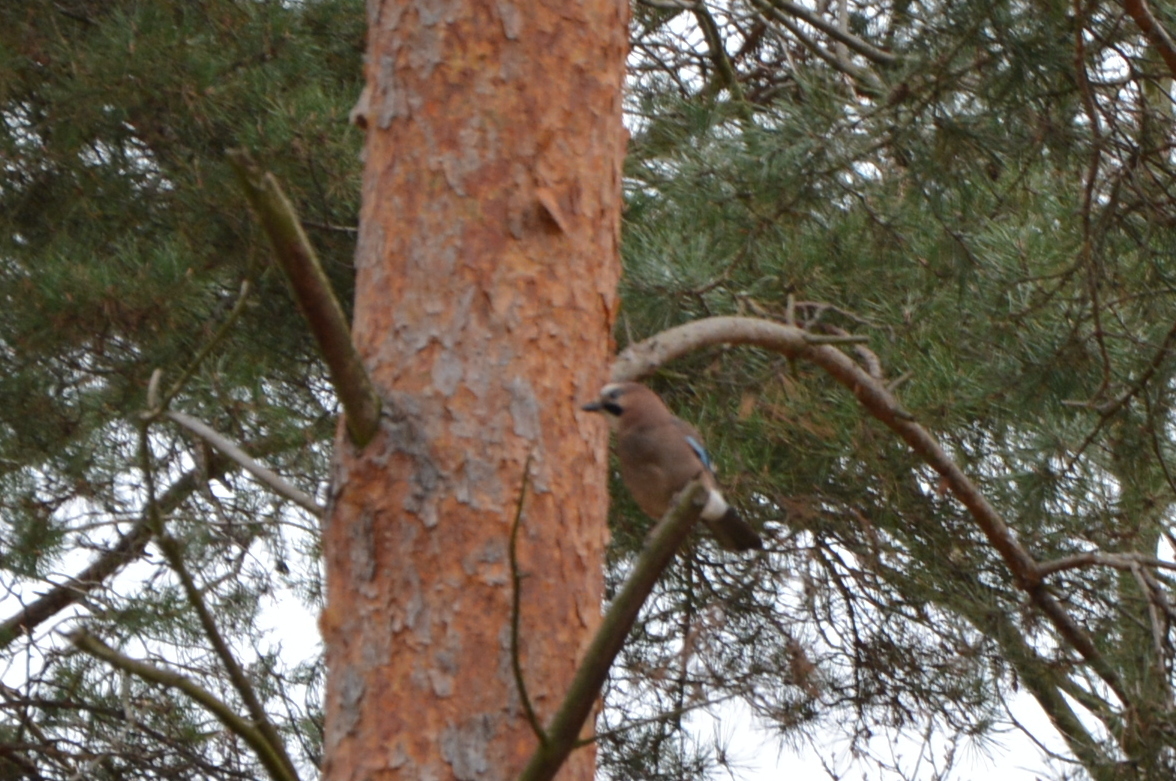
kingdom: Animalia
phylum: Chordata
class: Aves
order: Passeriformes
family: Corvidae
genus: Garrulus
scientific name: Garrulus glandarius
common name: Eurasian jay
